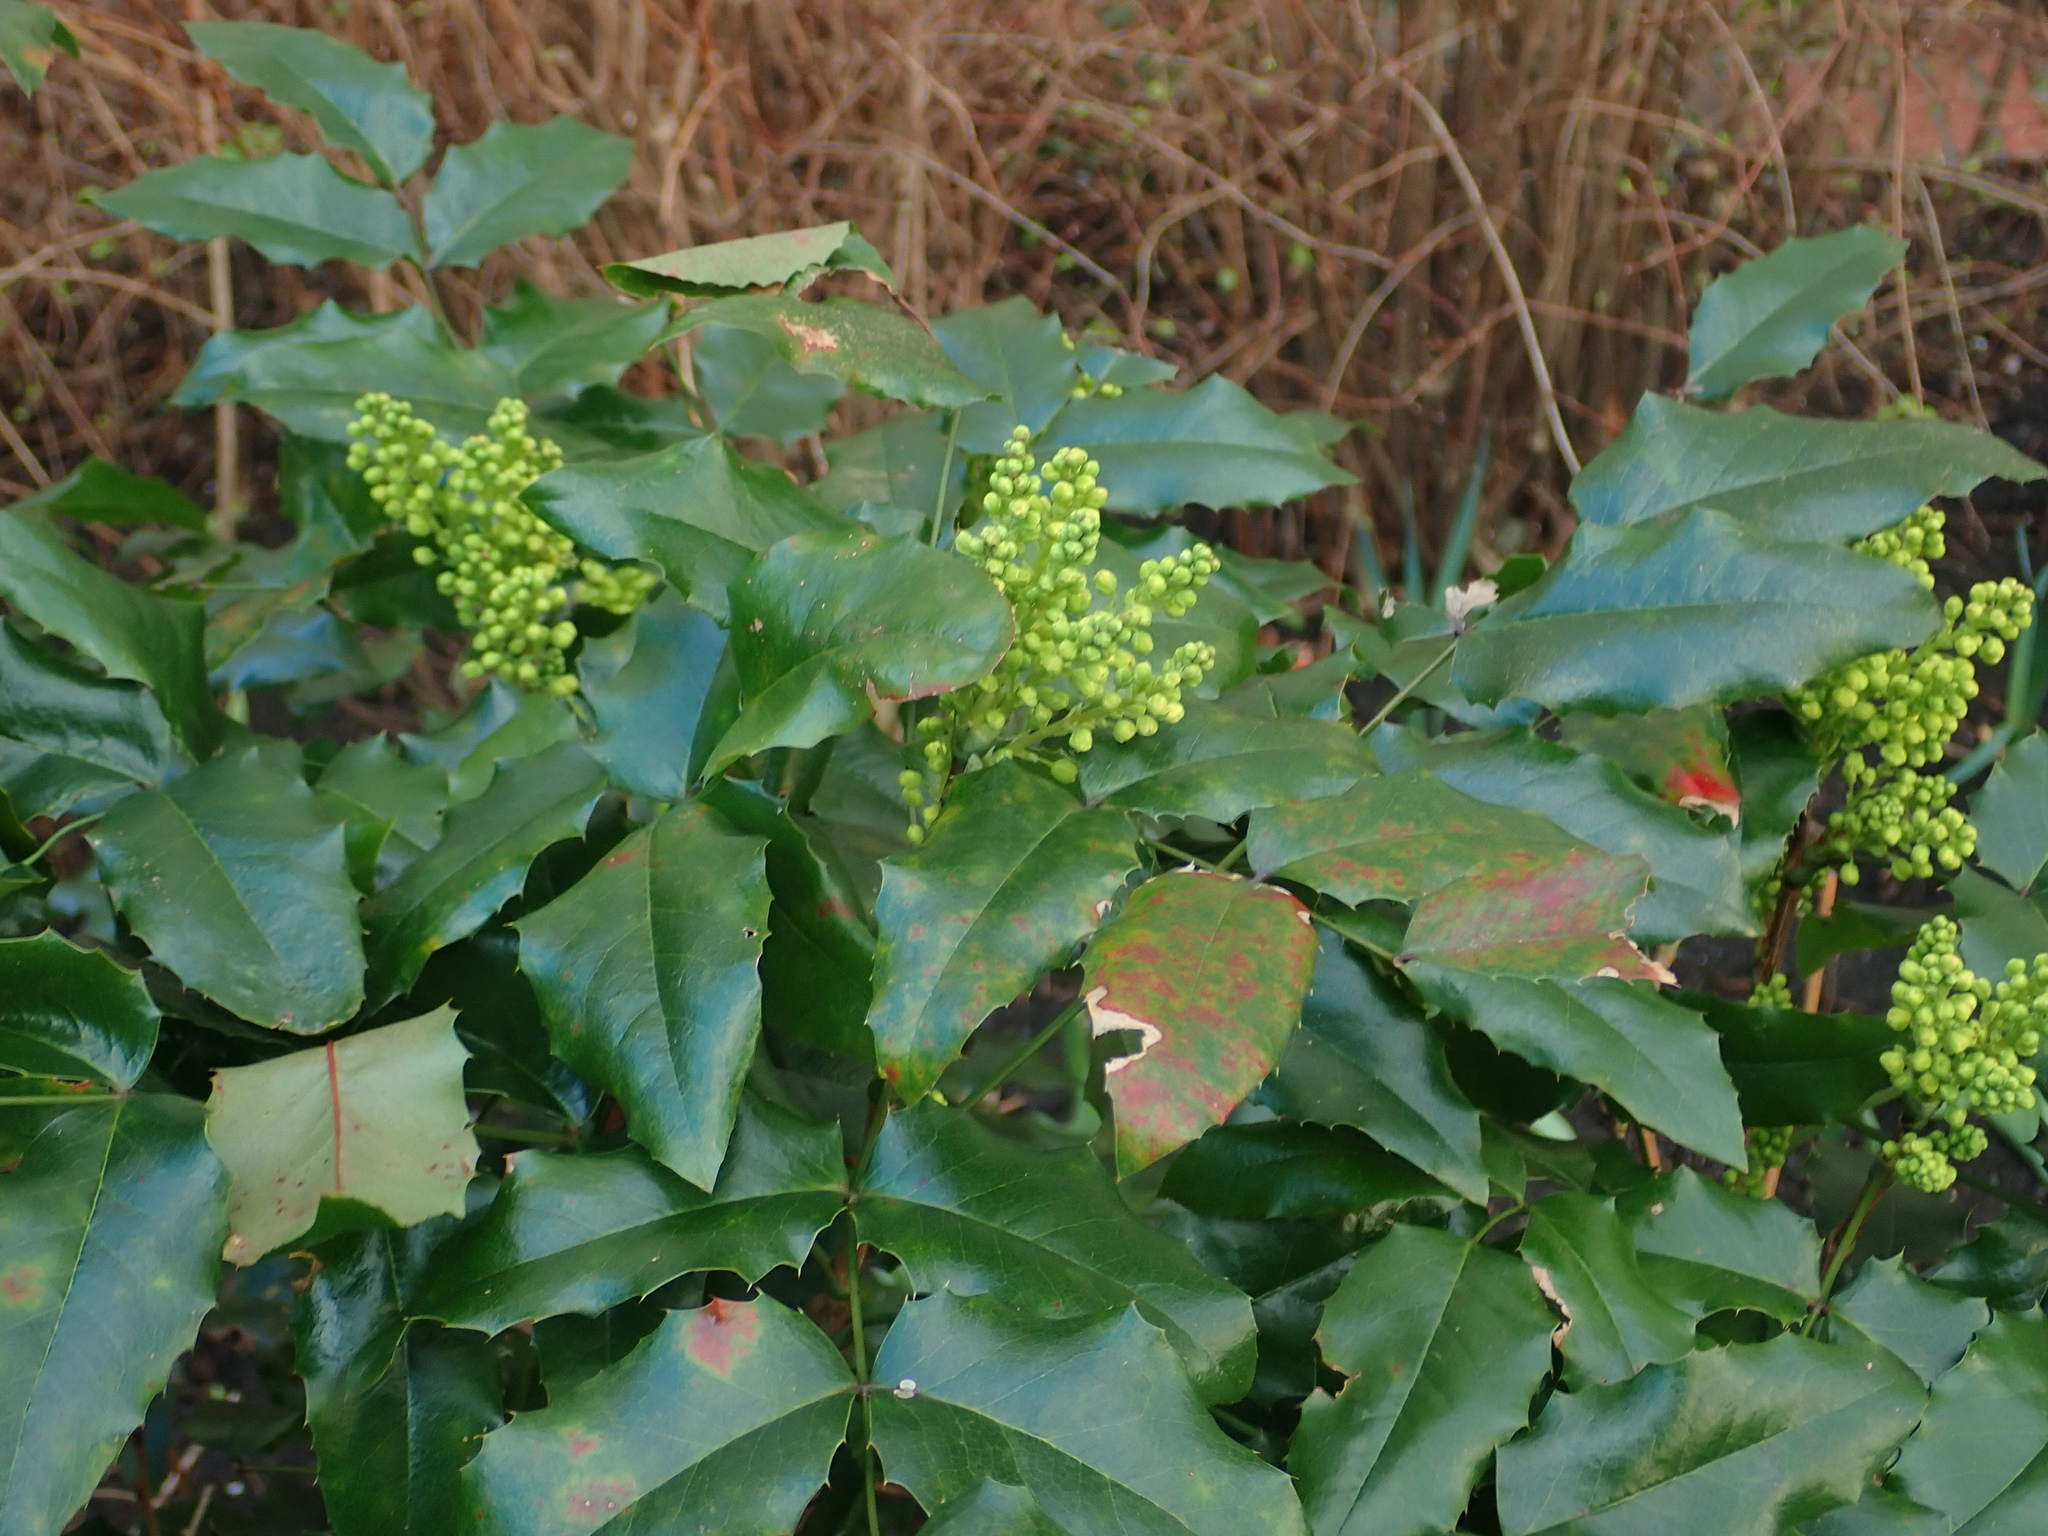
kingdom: Plantae
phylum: Tracheophyta
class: Magnoliopsida
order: Ranunculales
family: Berberidaceae
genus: Mahonia
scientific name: Mahonia aquifolium
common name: Oregon-grape
